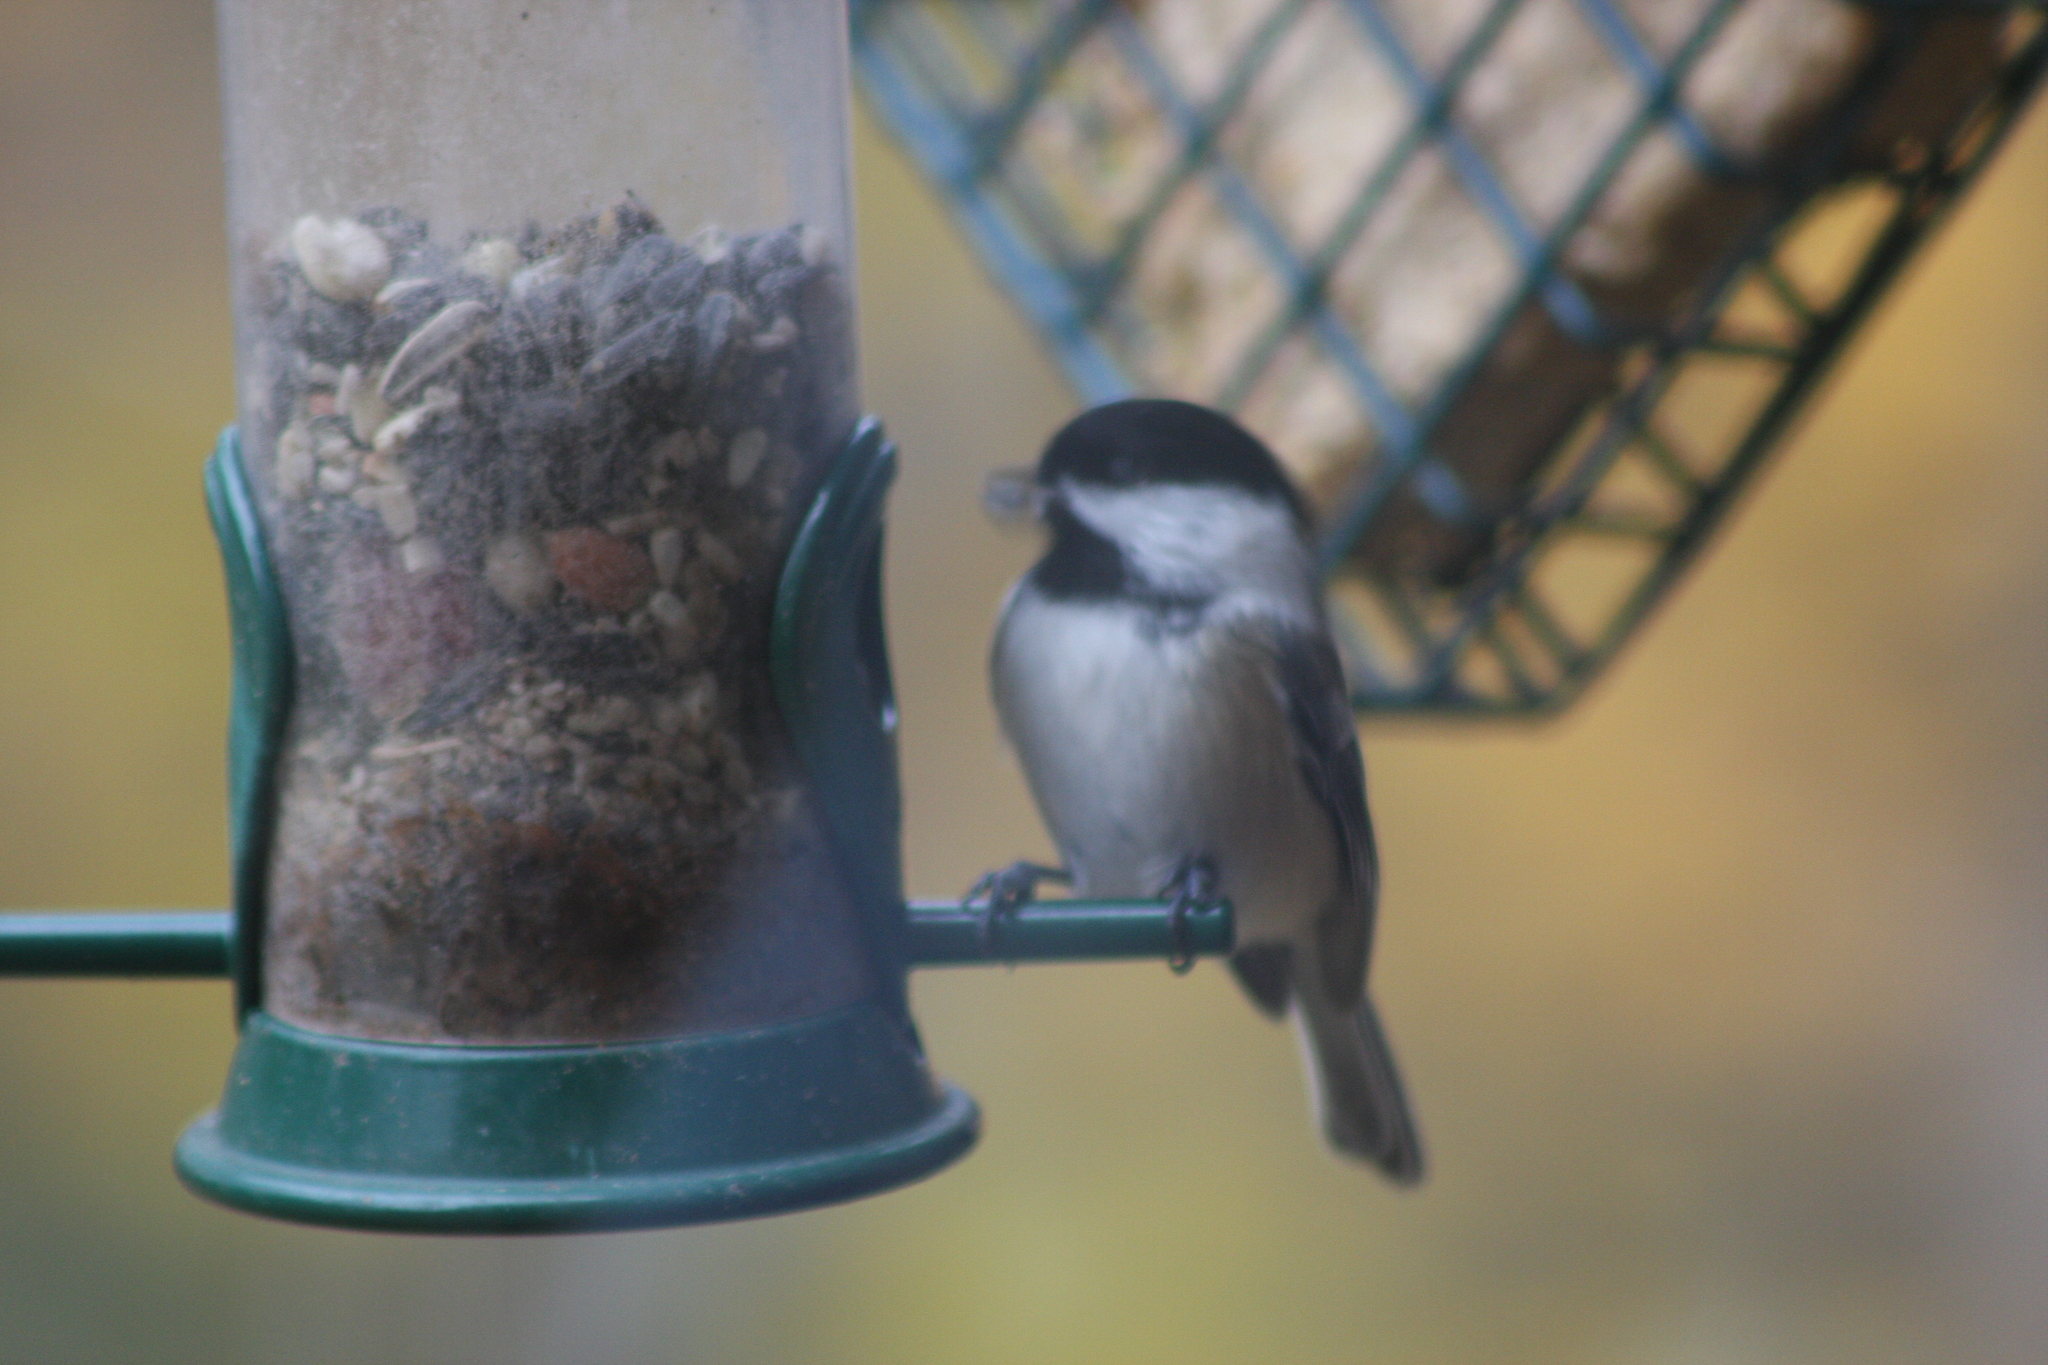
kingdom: Animalia
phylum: Chordata
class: Aves
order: Passeriformes
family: Paridae
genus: Poecile
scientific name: Poecile atricapillus
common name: Black-capped chickadee
